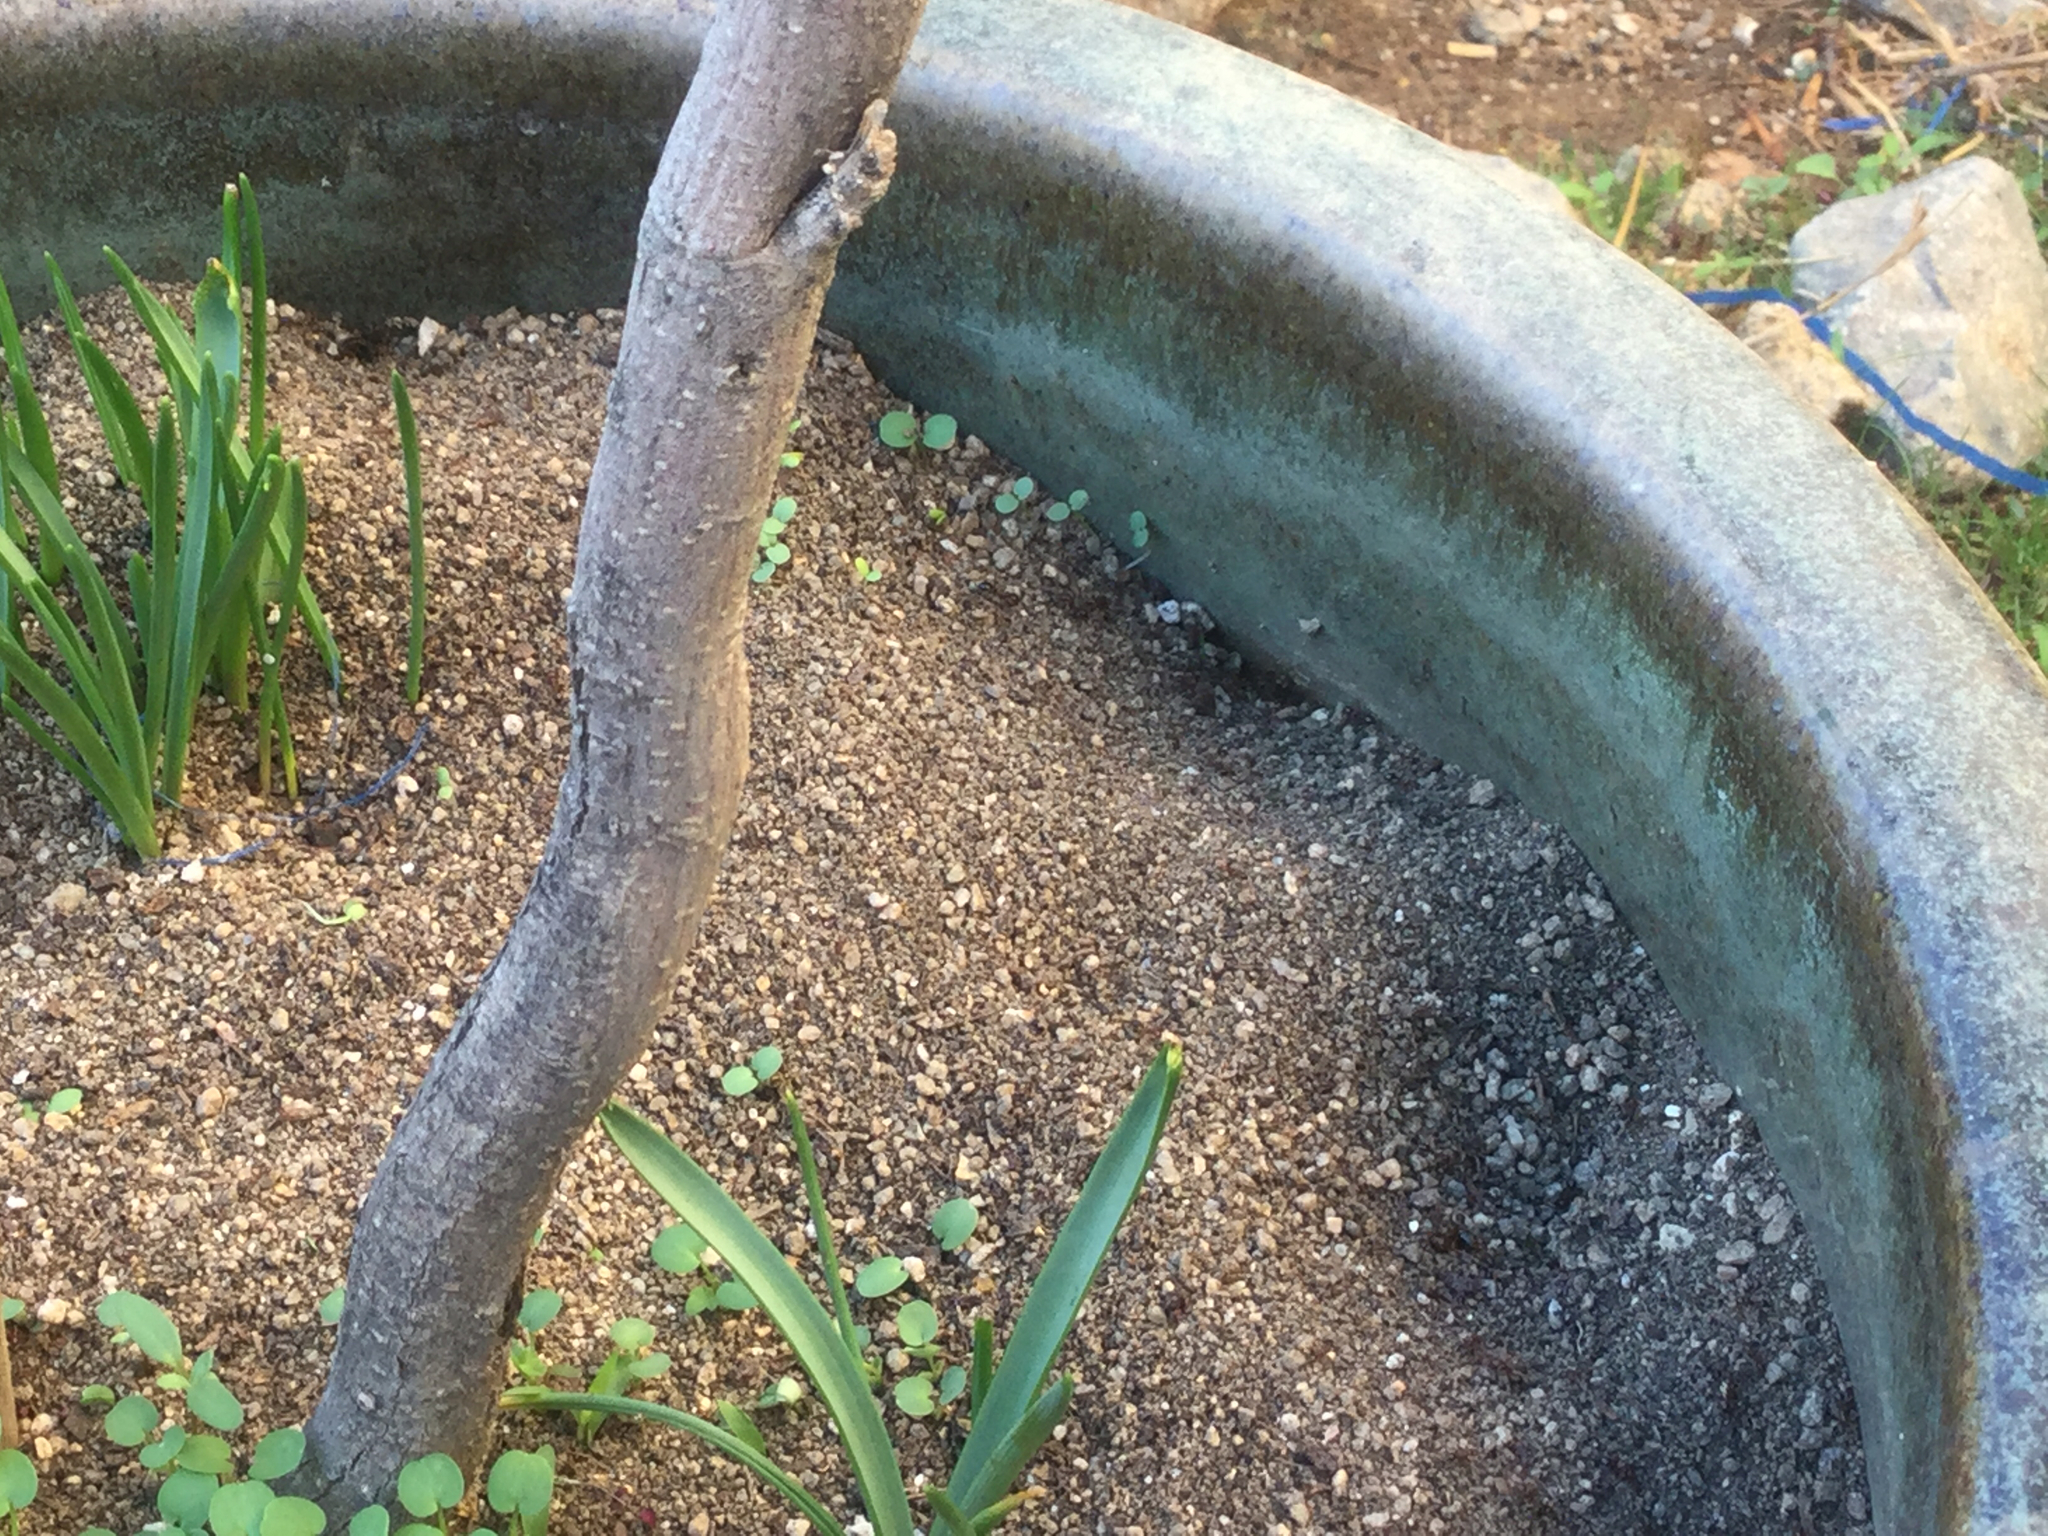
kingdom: Animalia
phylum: Arthropoda
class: Insecta
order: Hymenoptera
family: Formicidae
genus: Solenopsis
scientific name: Solenopsis invicta
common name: Red imported fire ant
